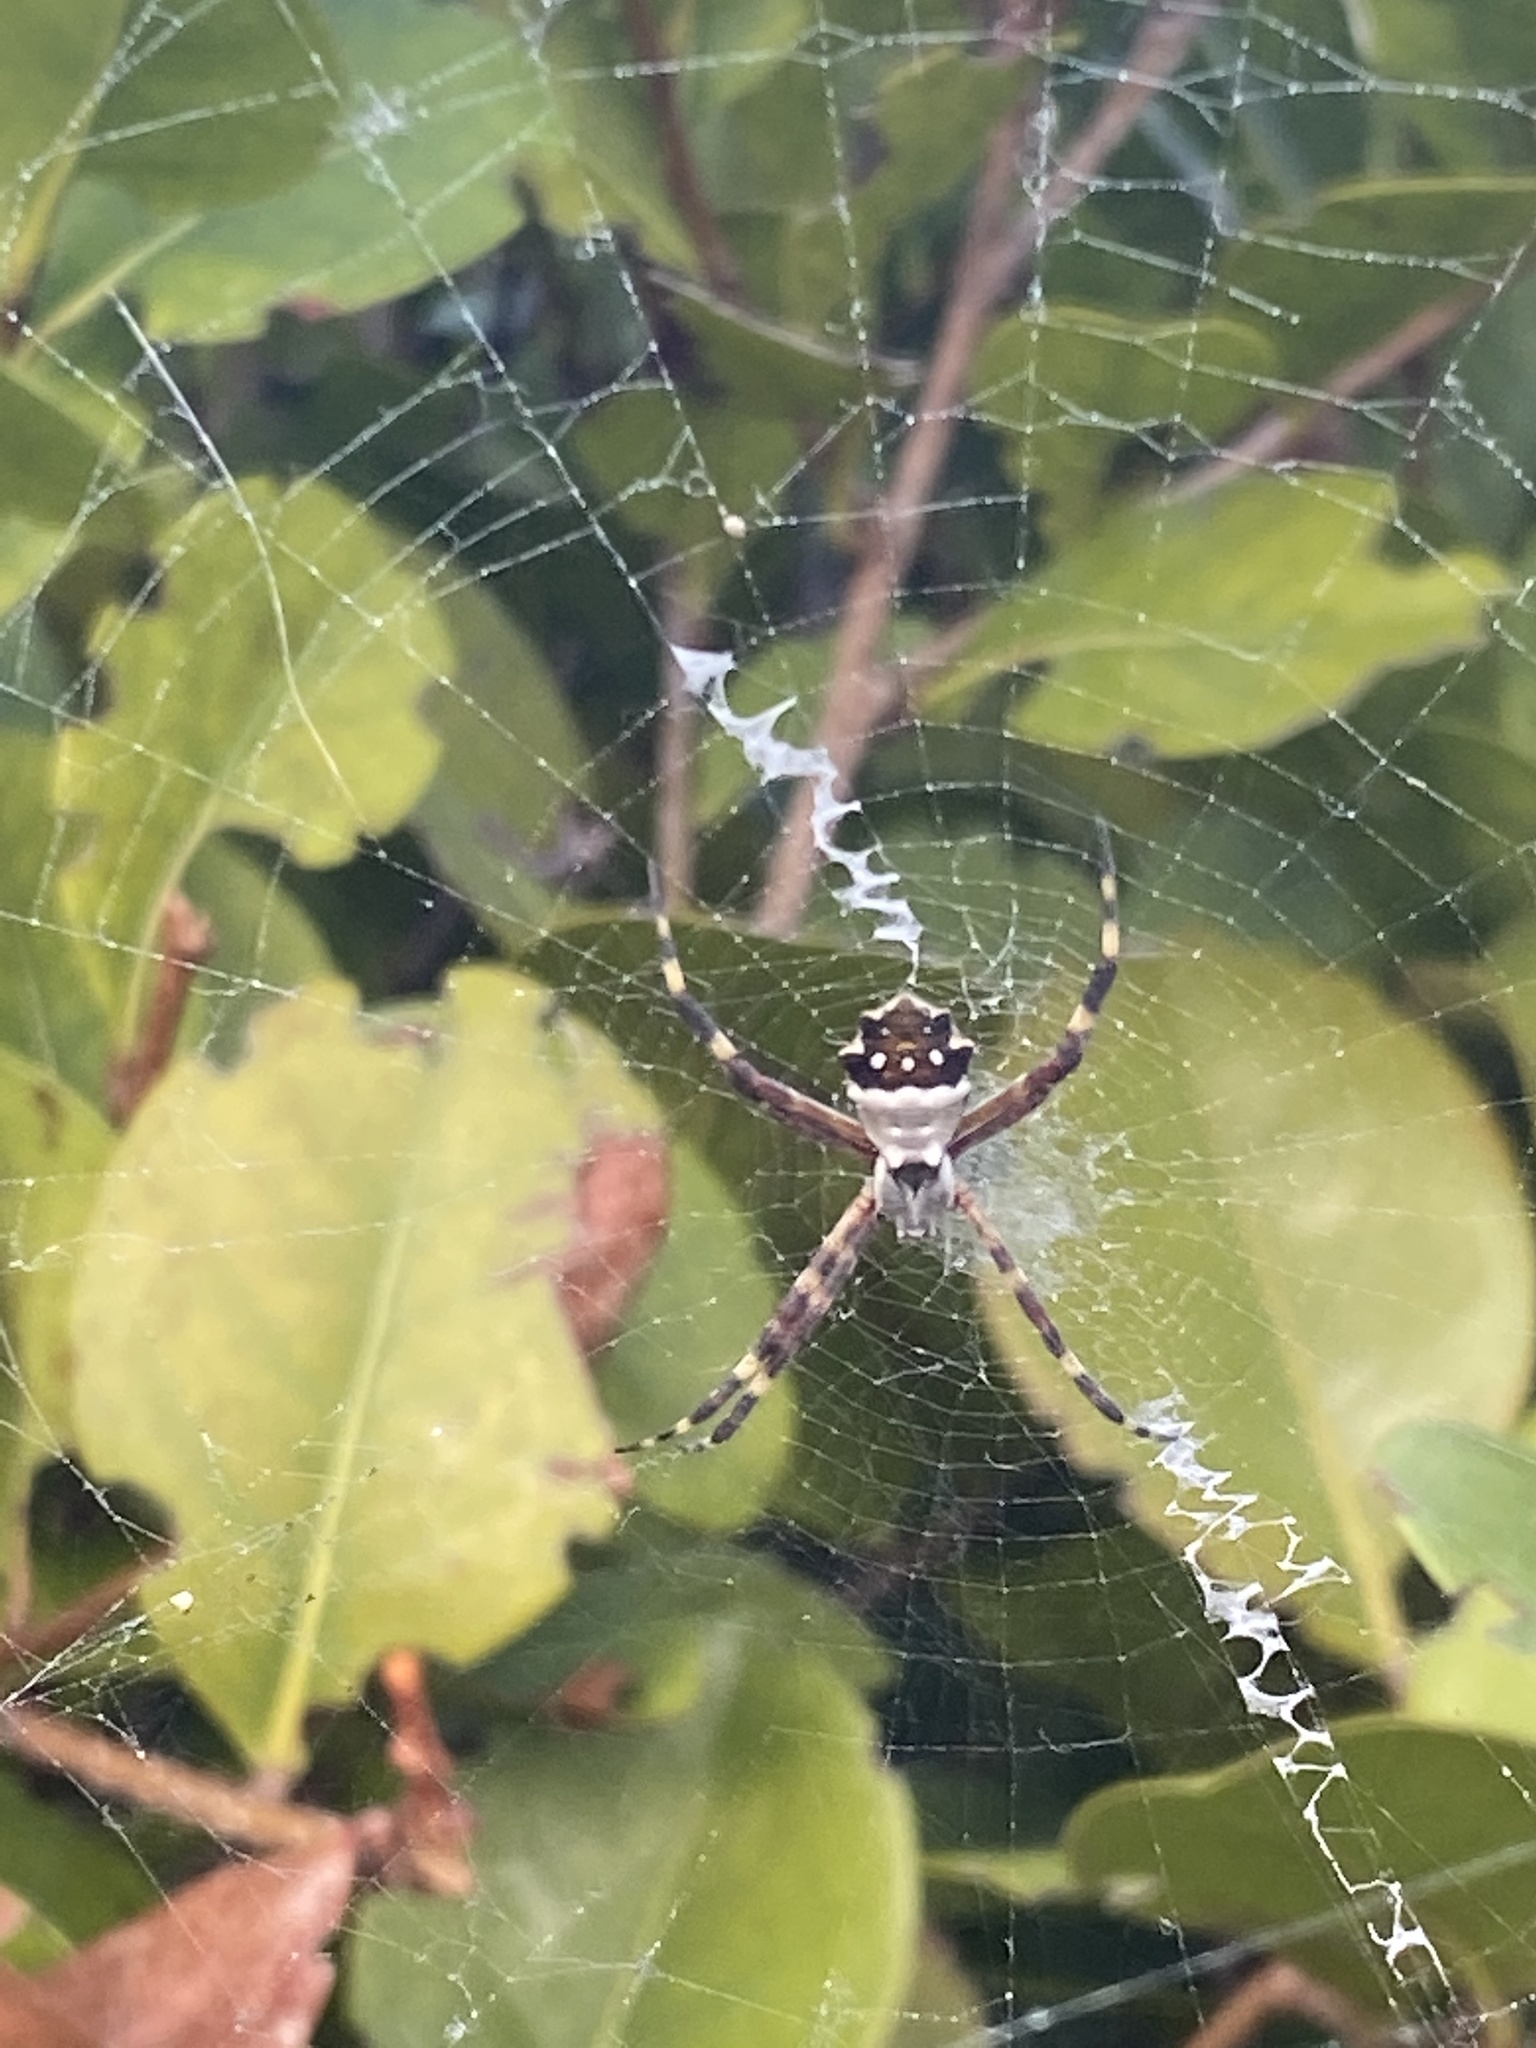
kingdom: Animalia
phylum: Arthropoda
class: Arachnida
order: Araneae
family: Araneidae
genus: Argiope
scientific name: Argiope argentata
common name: Orb weavers
